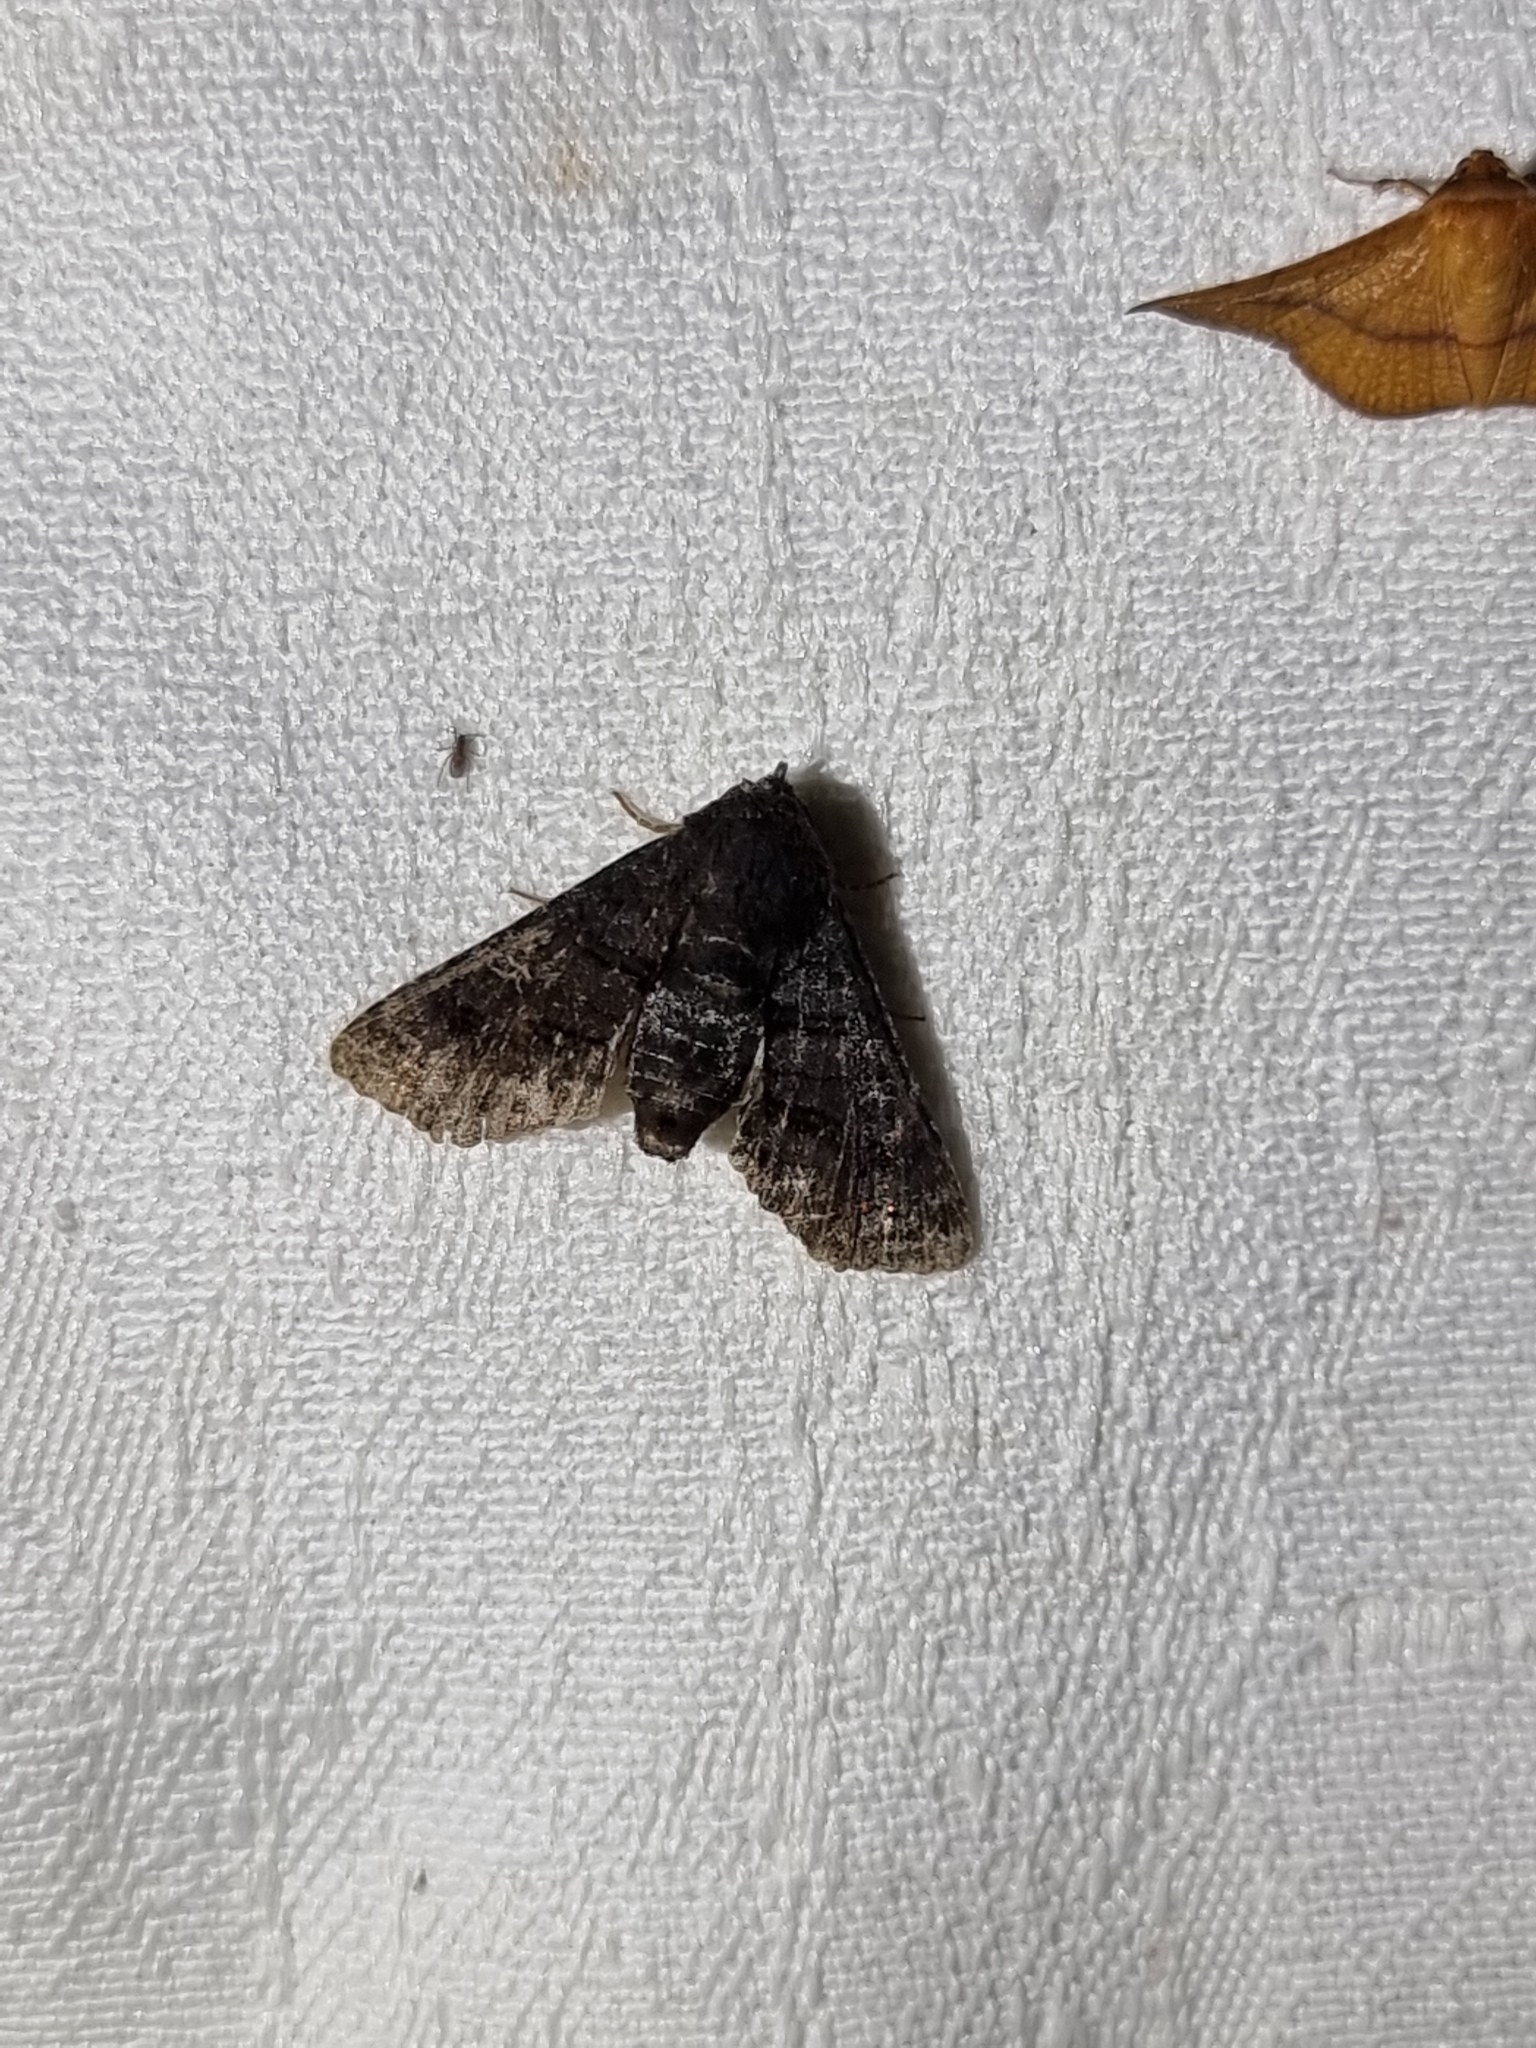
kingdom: Animalia
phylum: Arthropoda
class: Insecta
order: Lepidoptera
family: Euteliidae
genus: Pataeta
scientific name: Pataeta carbo
